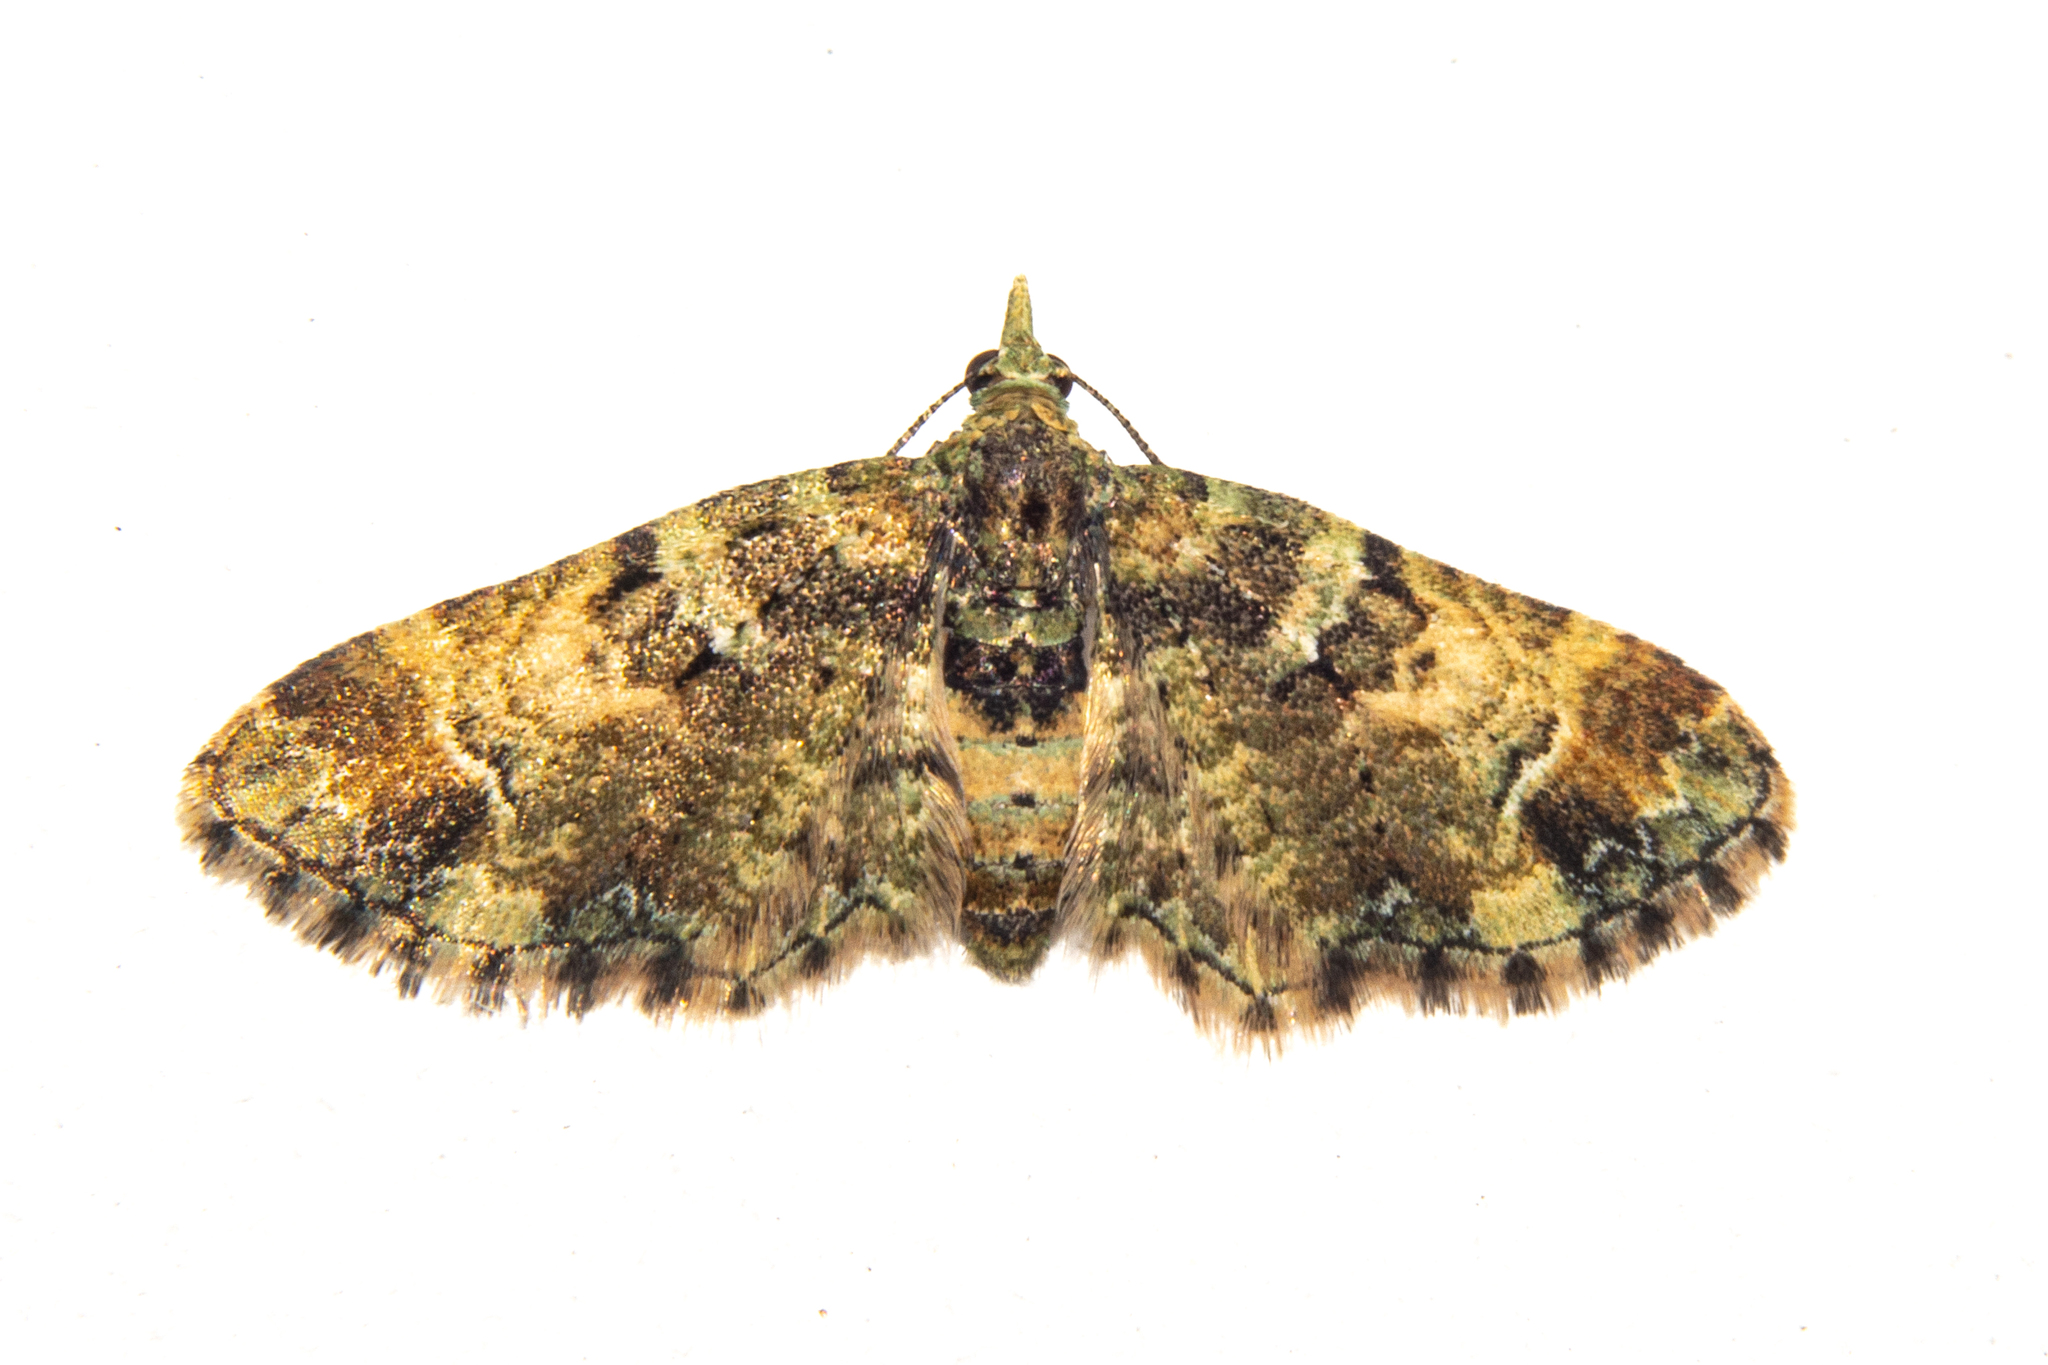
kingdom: Animalia
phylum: Arthropoda
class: Insecta
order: Lepidoptera
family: Geometridae
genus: Pasiphila
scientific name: Pasiphila sandycias
